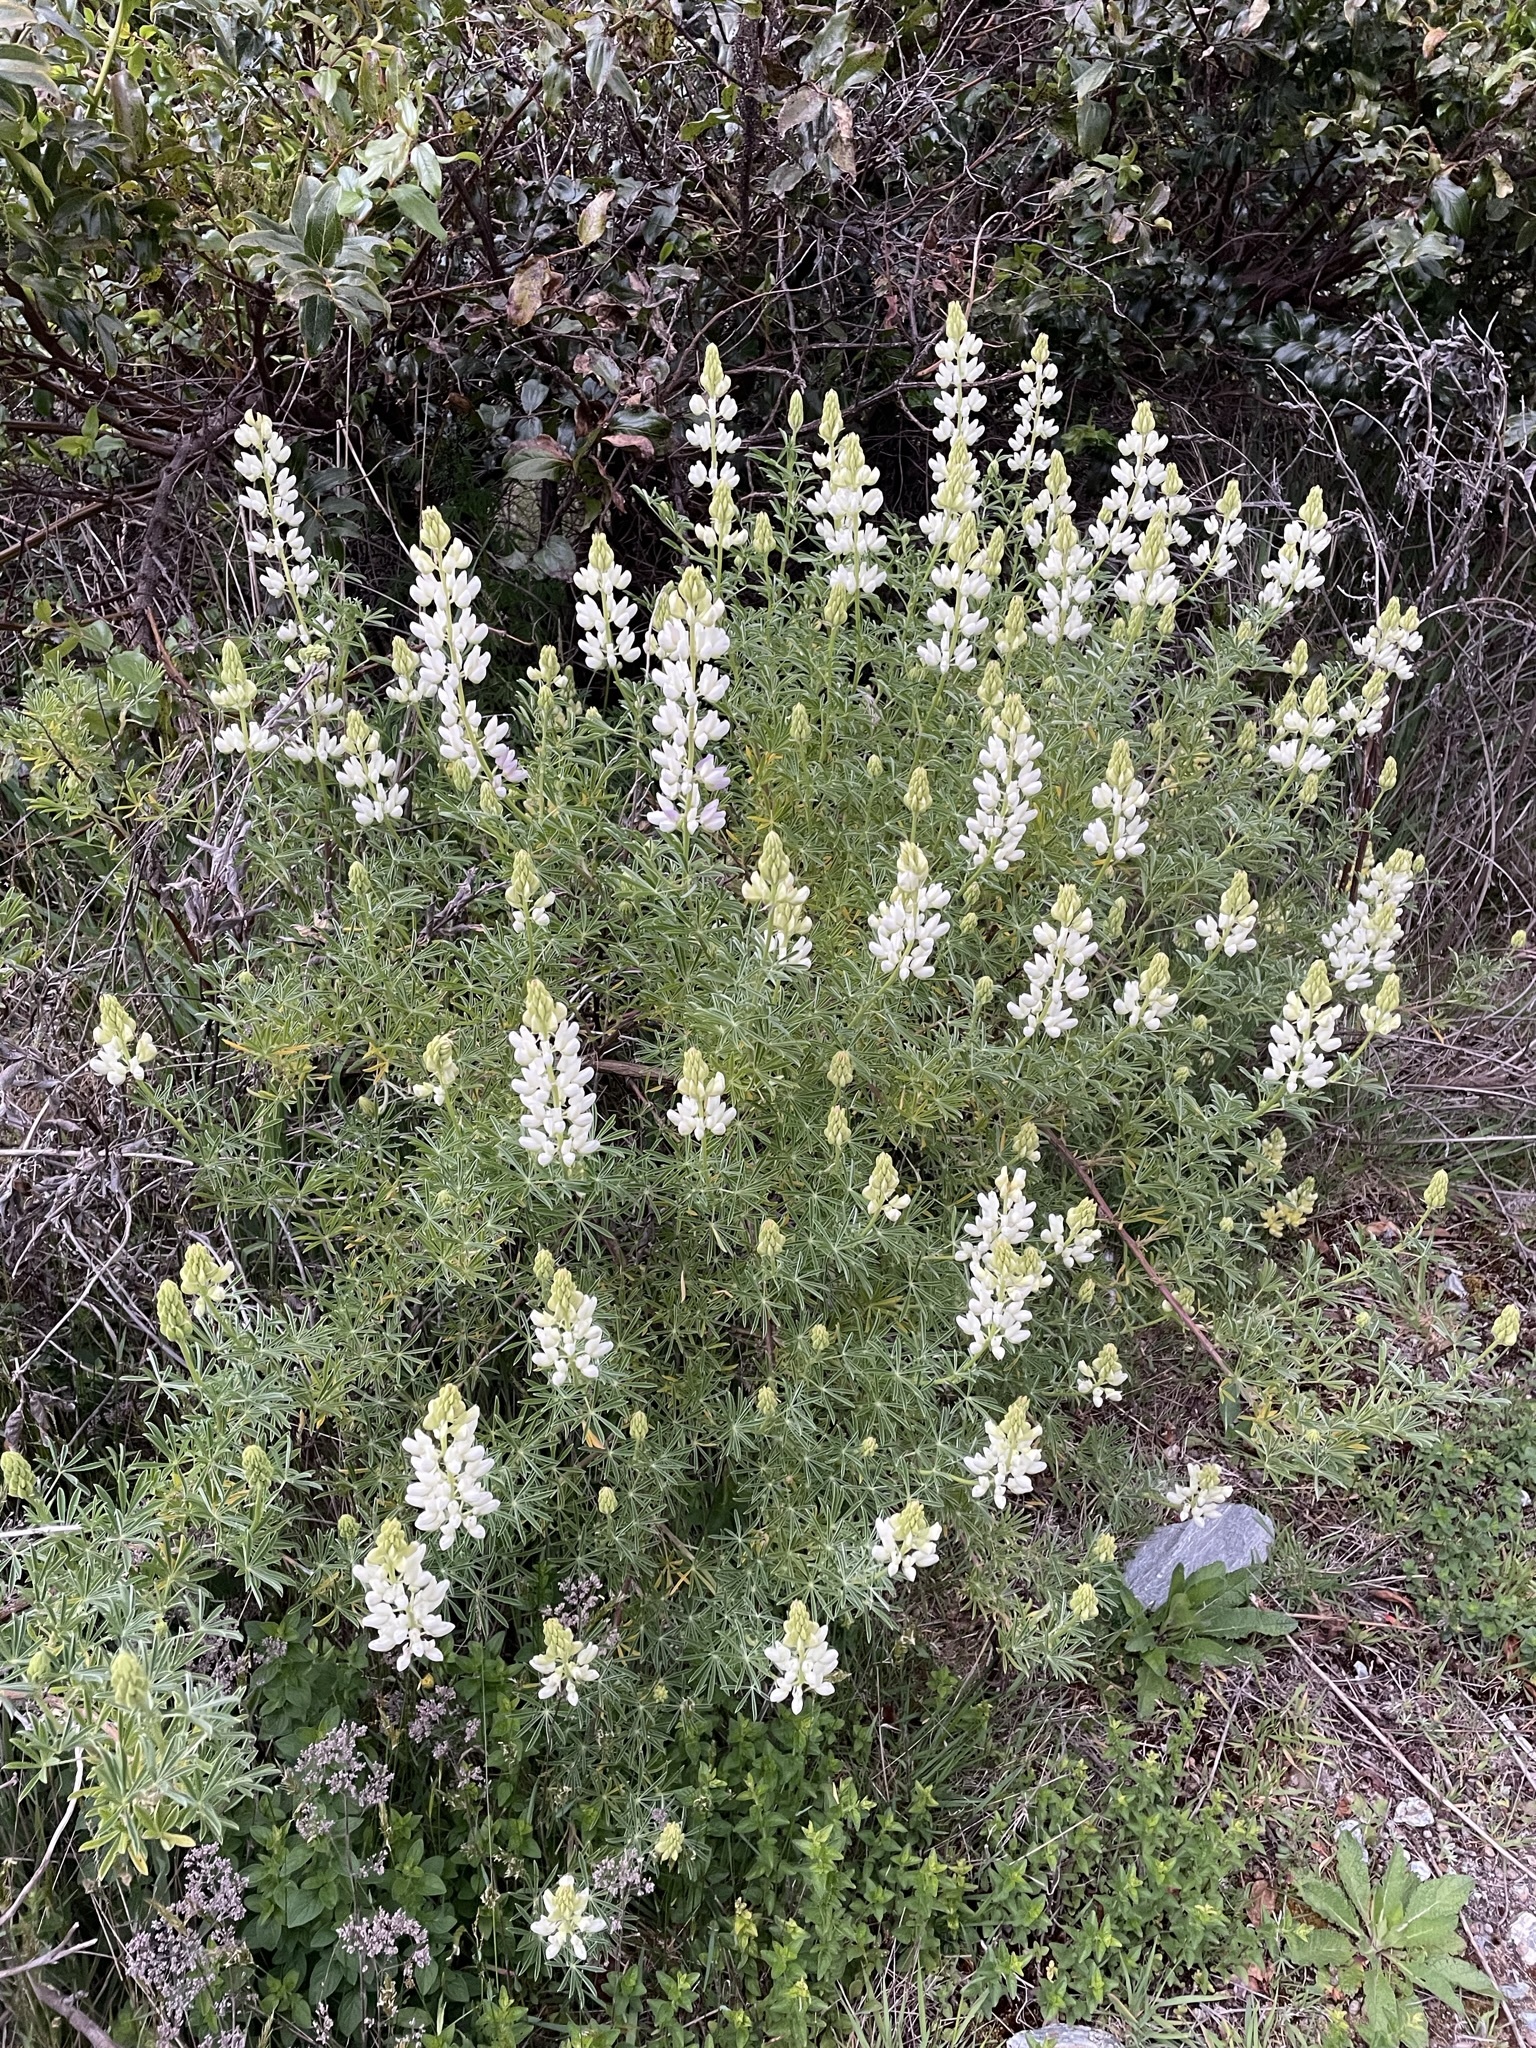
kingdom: Plantae
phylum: Tracheophyta
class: Magnoliopsida
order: Fabales
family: Fabaceae
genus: Lupinus
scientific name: Lupinus arboreus
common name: Yellow bush lupine
